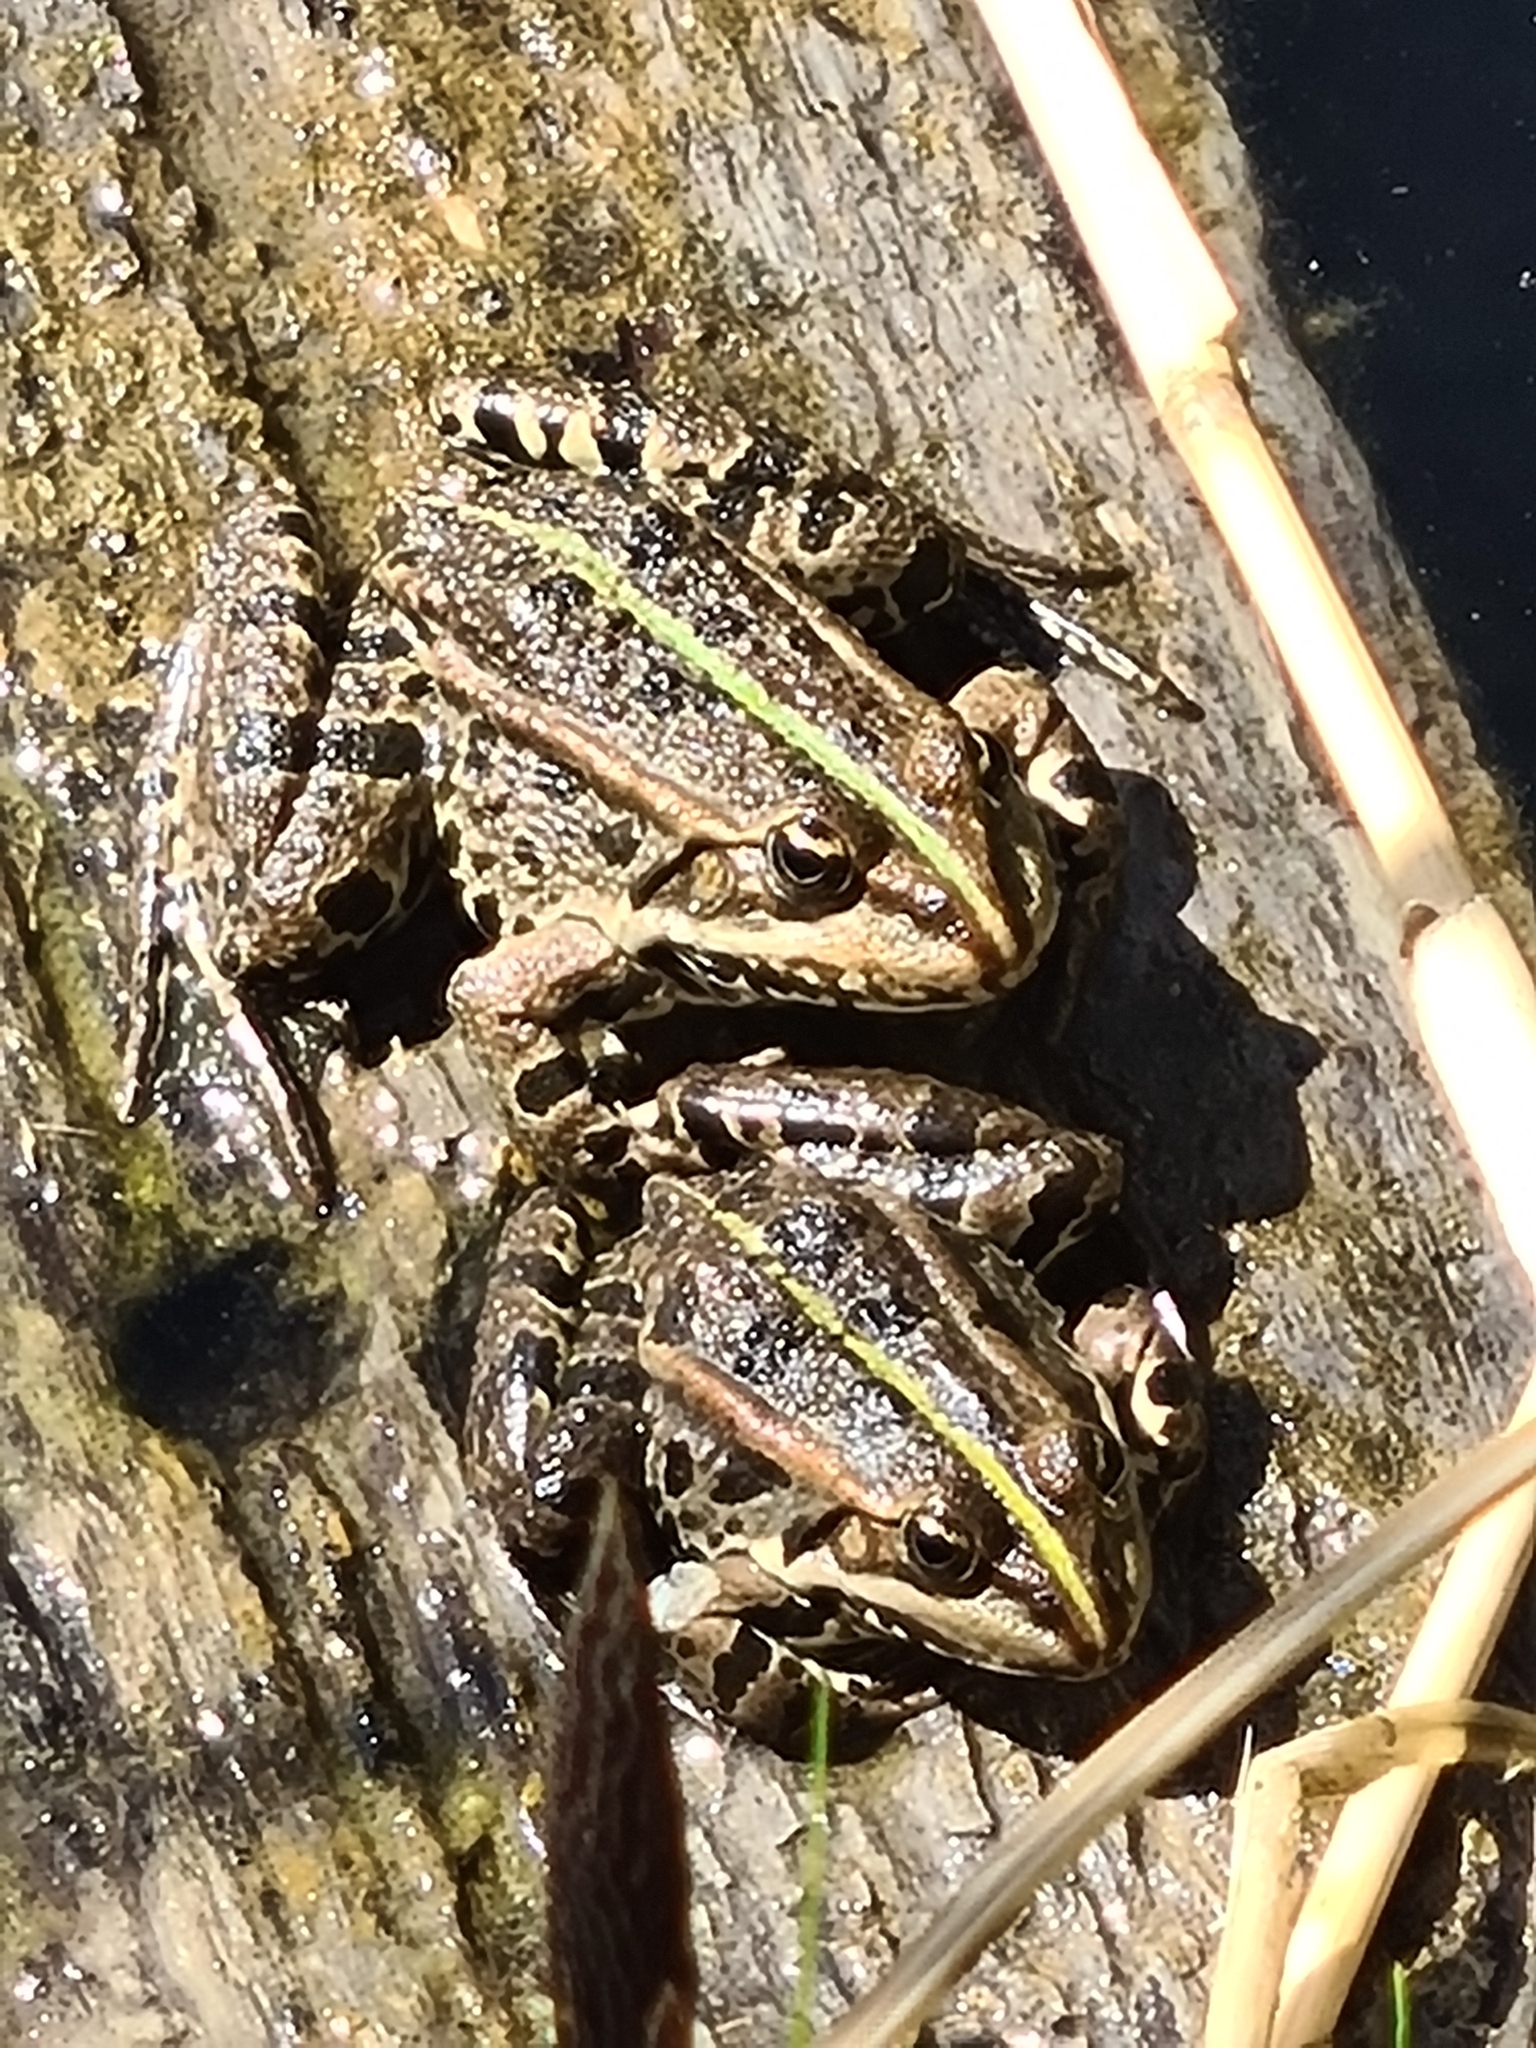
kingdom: Animalia
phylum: Chordata
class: Amphibia
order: Anura
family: Ranidae
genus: Pelophylax
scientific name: Pelophylax
